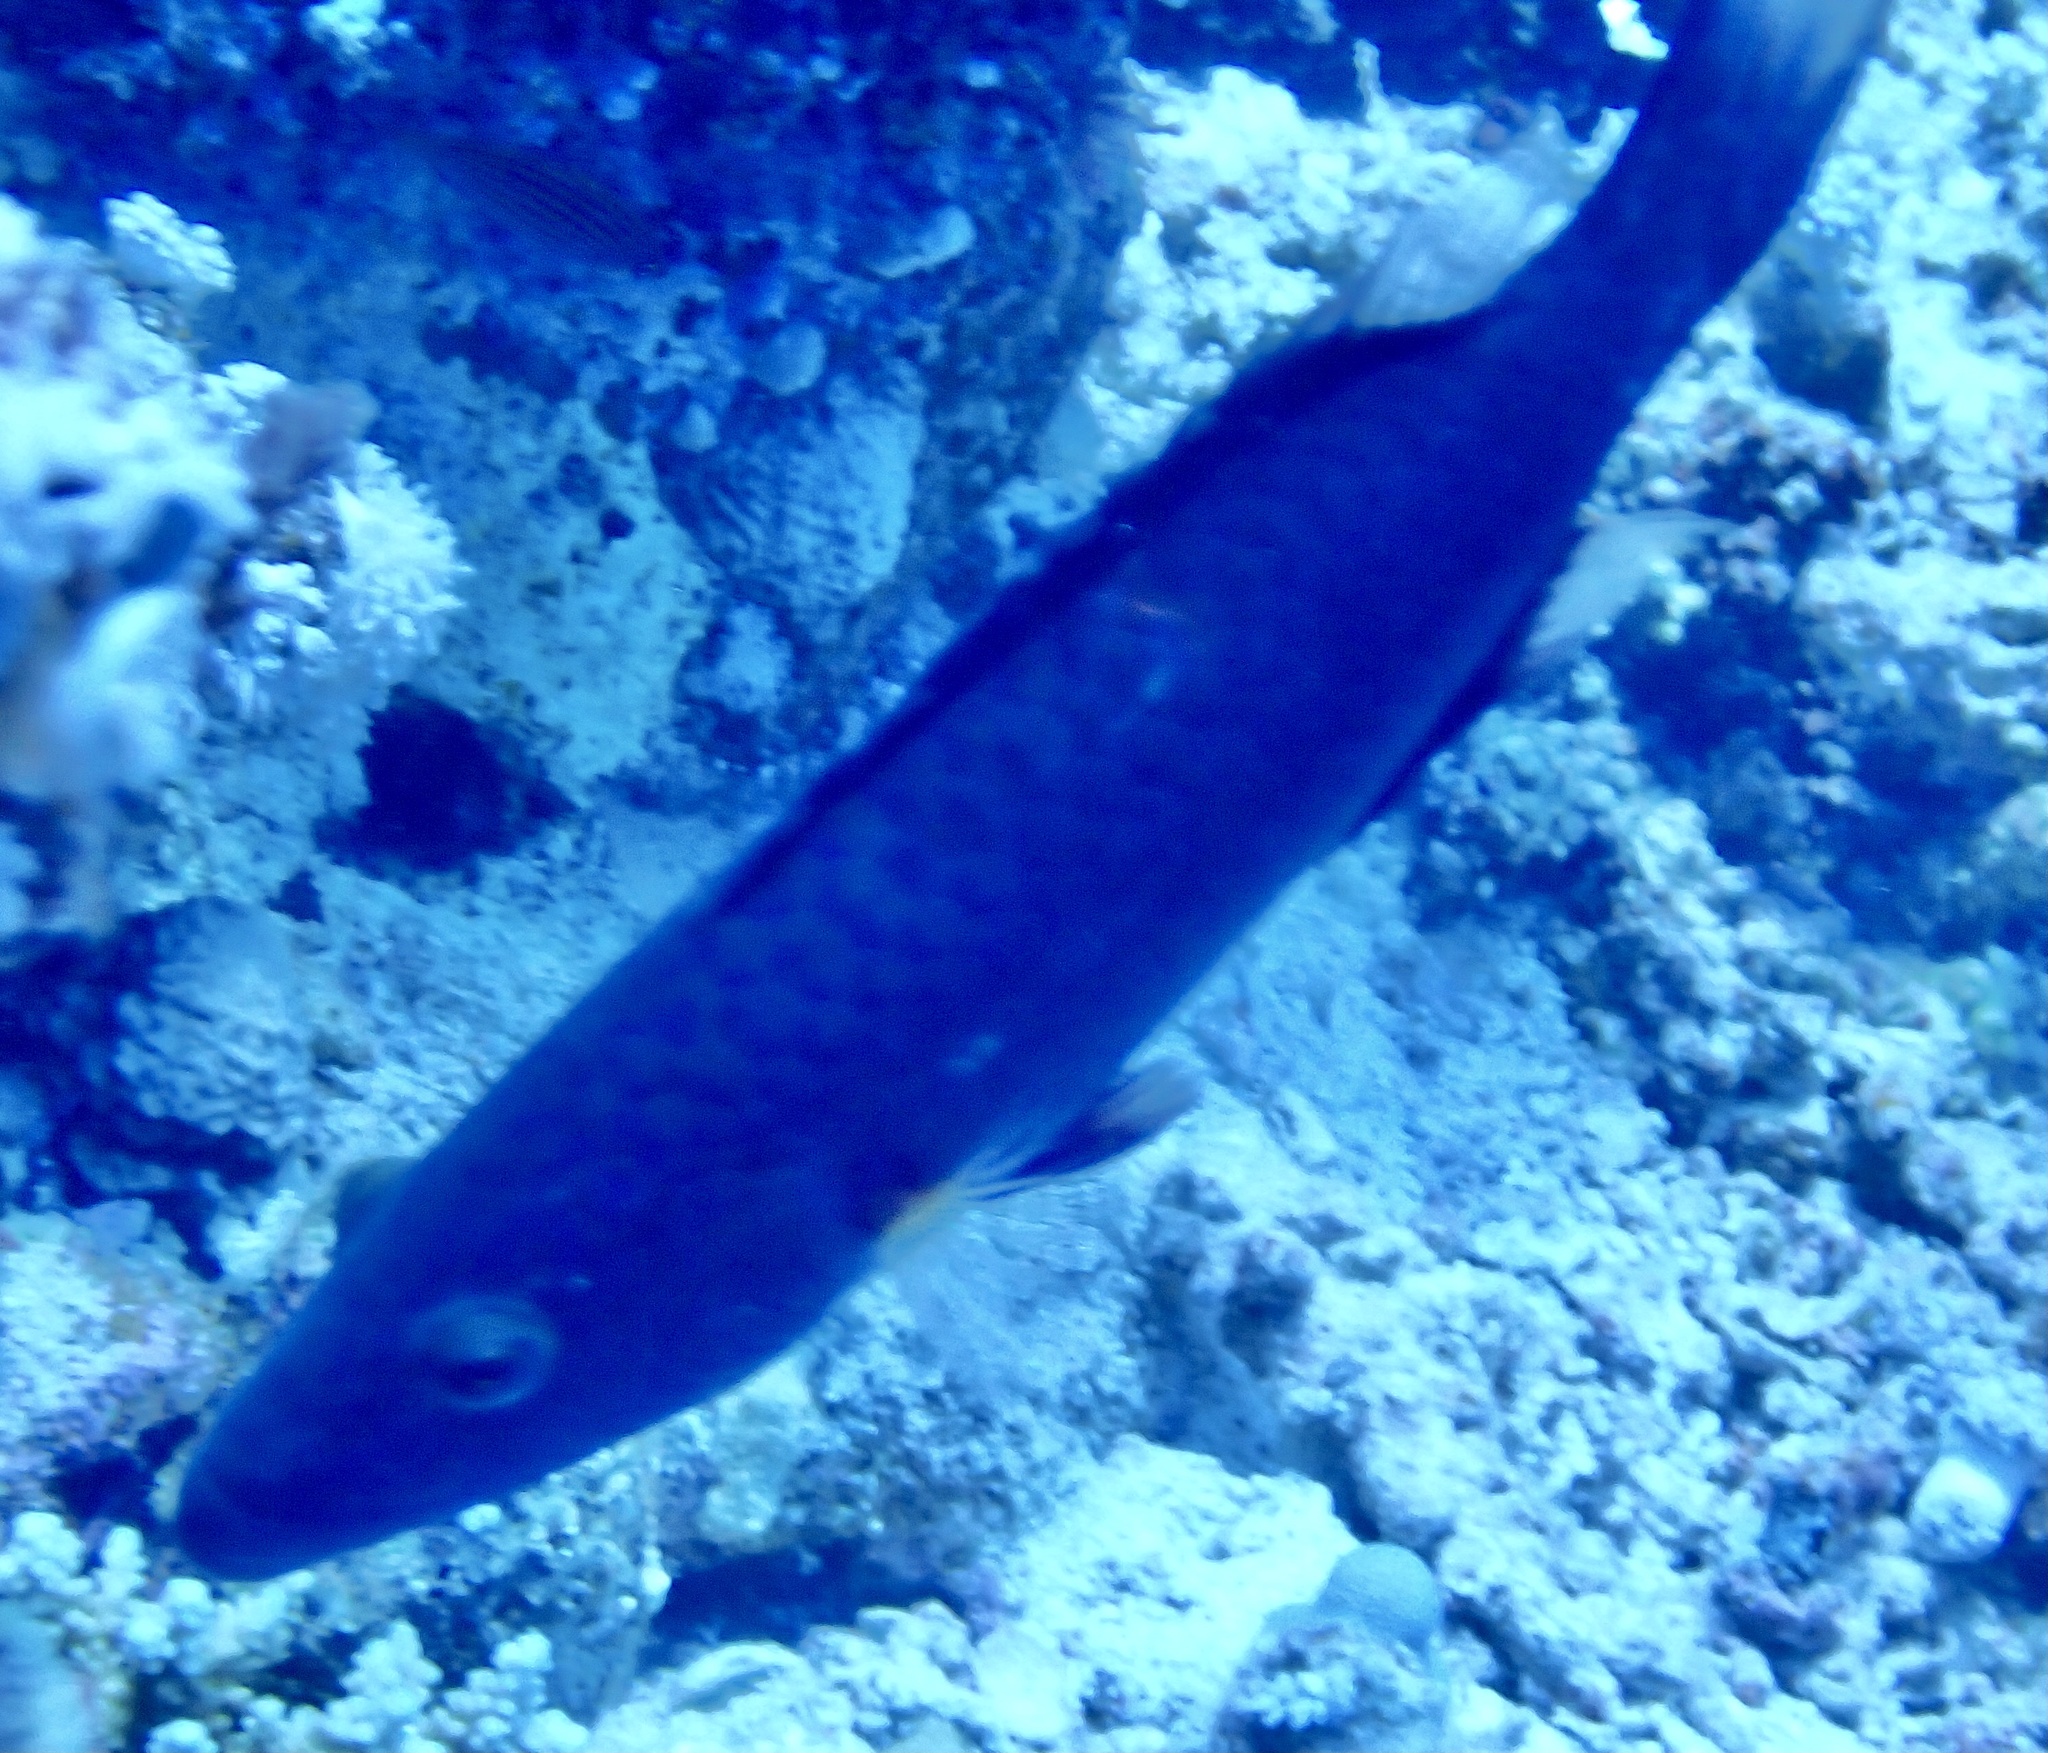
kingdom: Animalia
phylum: Chordata
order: Perciformes
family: Labridae
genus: Oxycheilinus
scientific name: Oxycheilinus digramma
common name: Bandcheek wrasse
